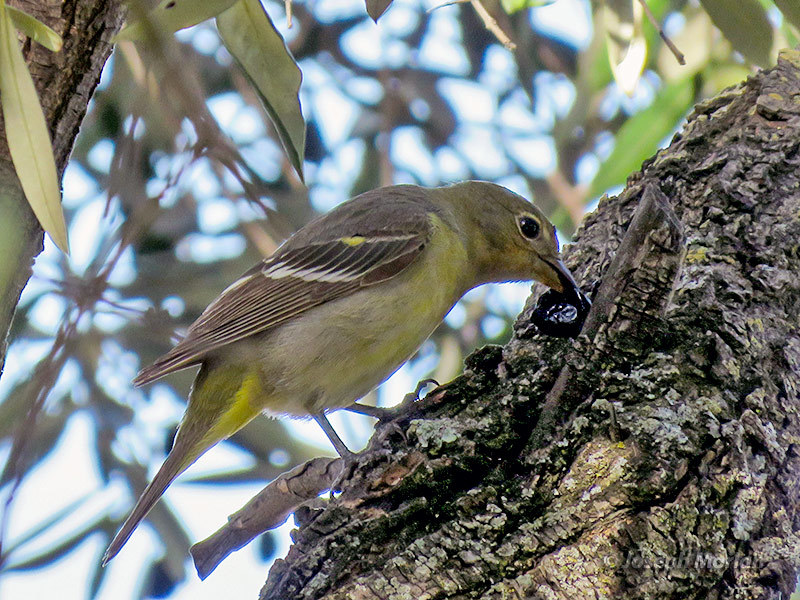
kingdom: Animalia
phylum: Chordata
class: Aves
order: Passeriformes
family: Cardinalidae
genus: Piranga
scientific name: Piranga ludoviciana
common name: Western tanager
